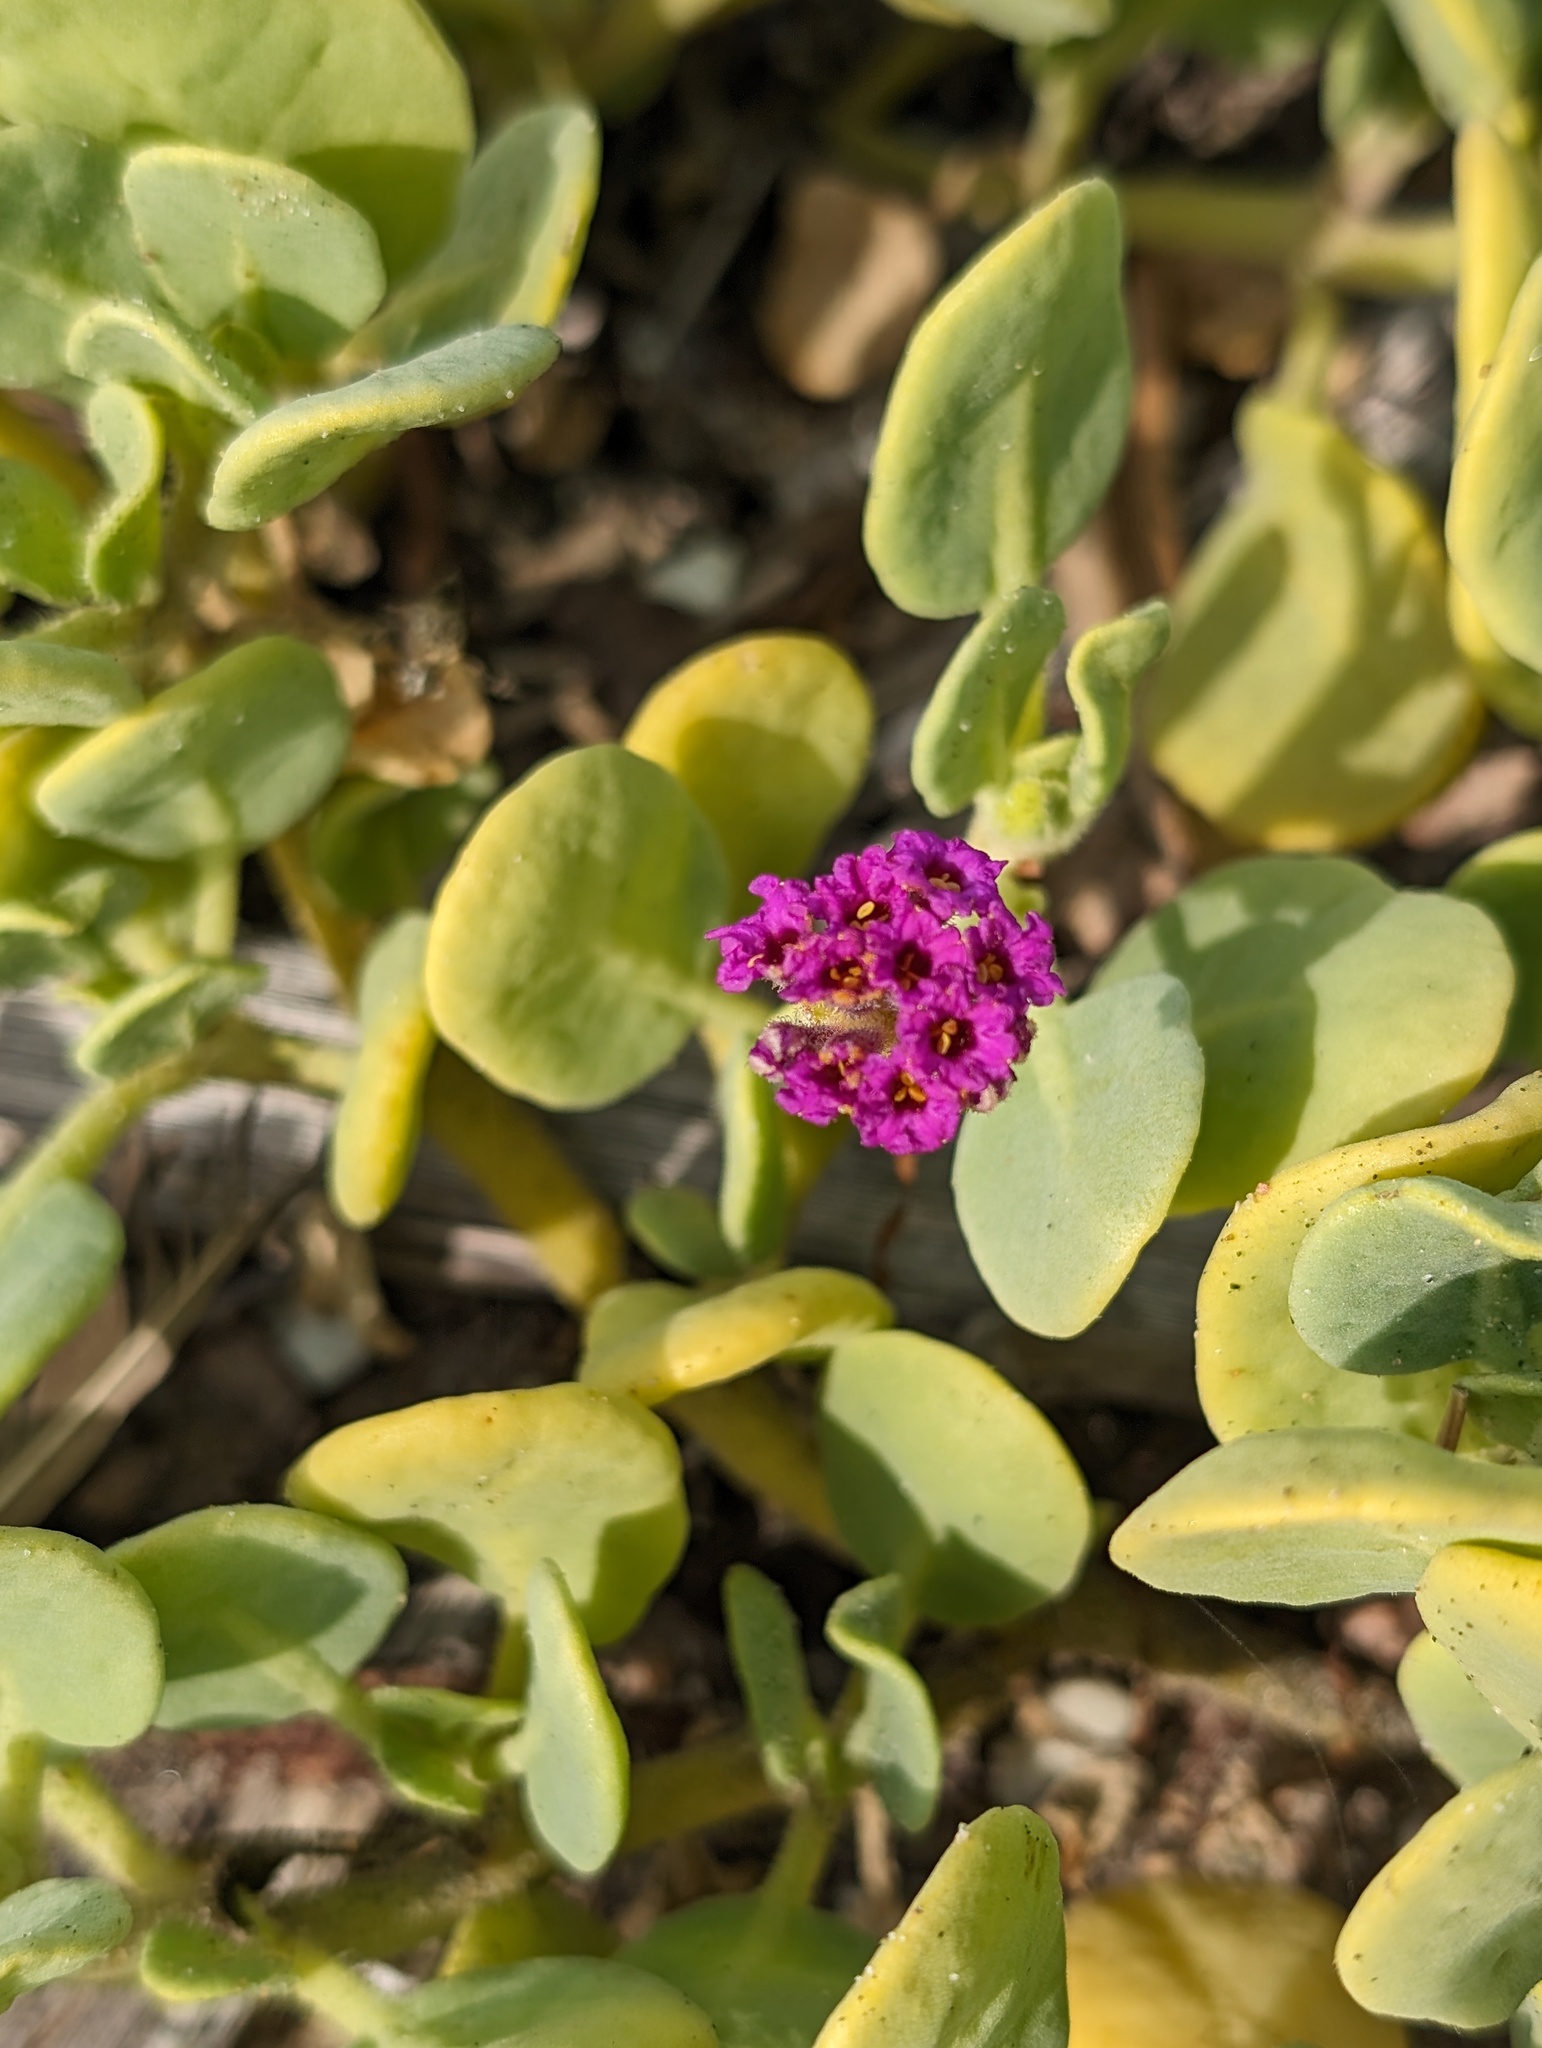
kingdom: Plantae
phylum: Tracheophyta
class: Magnoliopsida
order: Caryophyllales
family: Nyctaginaceae
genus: Abronia
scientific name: Abronia maritima
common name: Red sand-verbena
